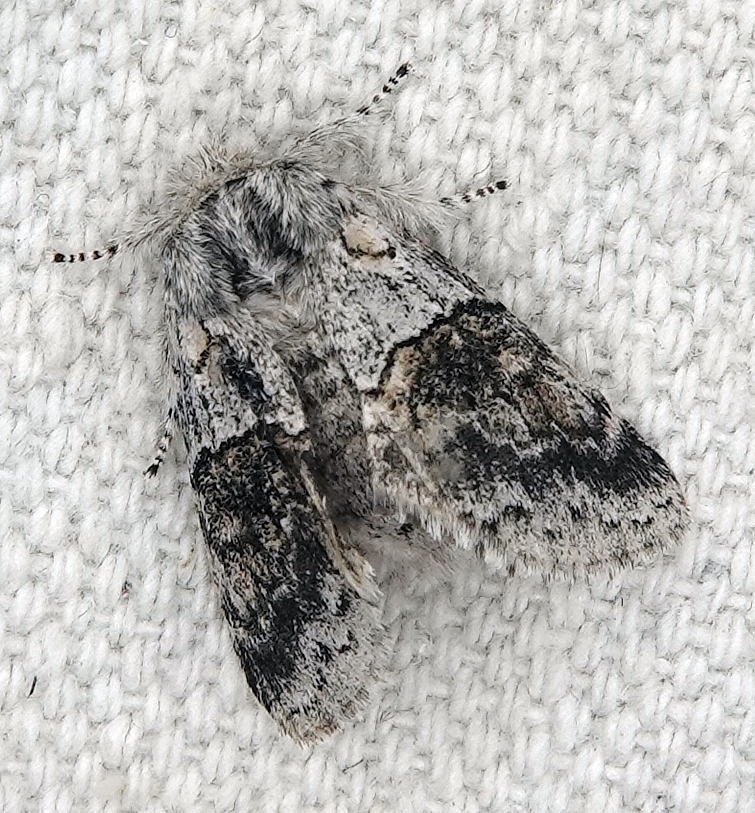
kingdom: Animalia
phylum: Arthropoda
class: Insecta
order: Lepidoptera
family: Notodontidae
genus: Gluphisia
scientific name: Gluphisia septentrionis
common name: Common gluphisia
